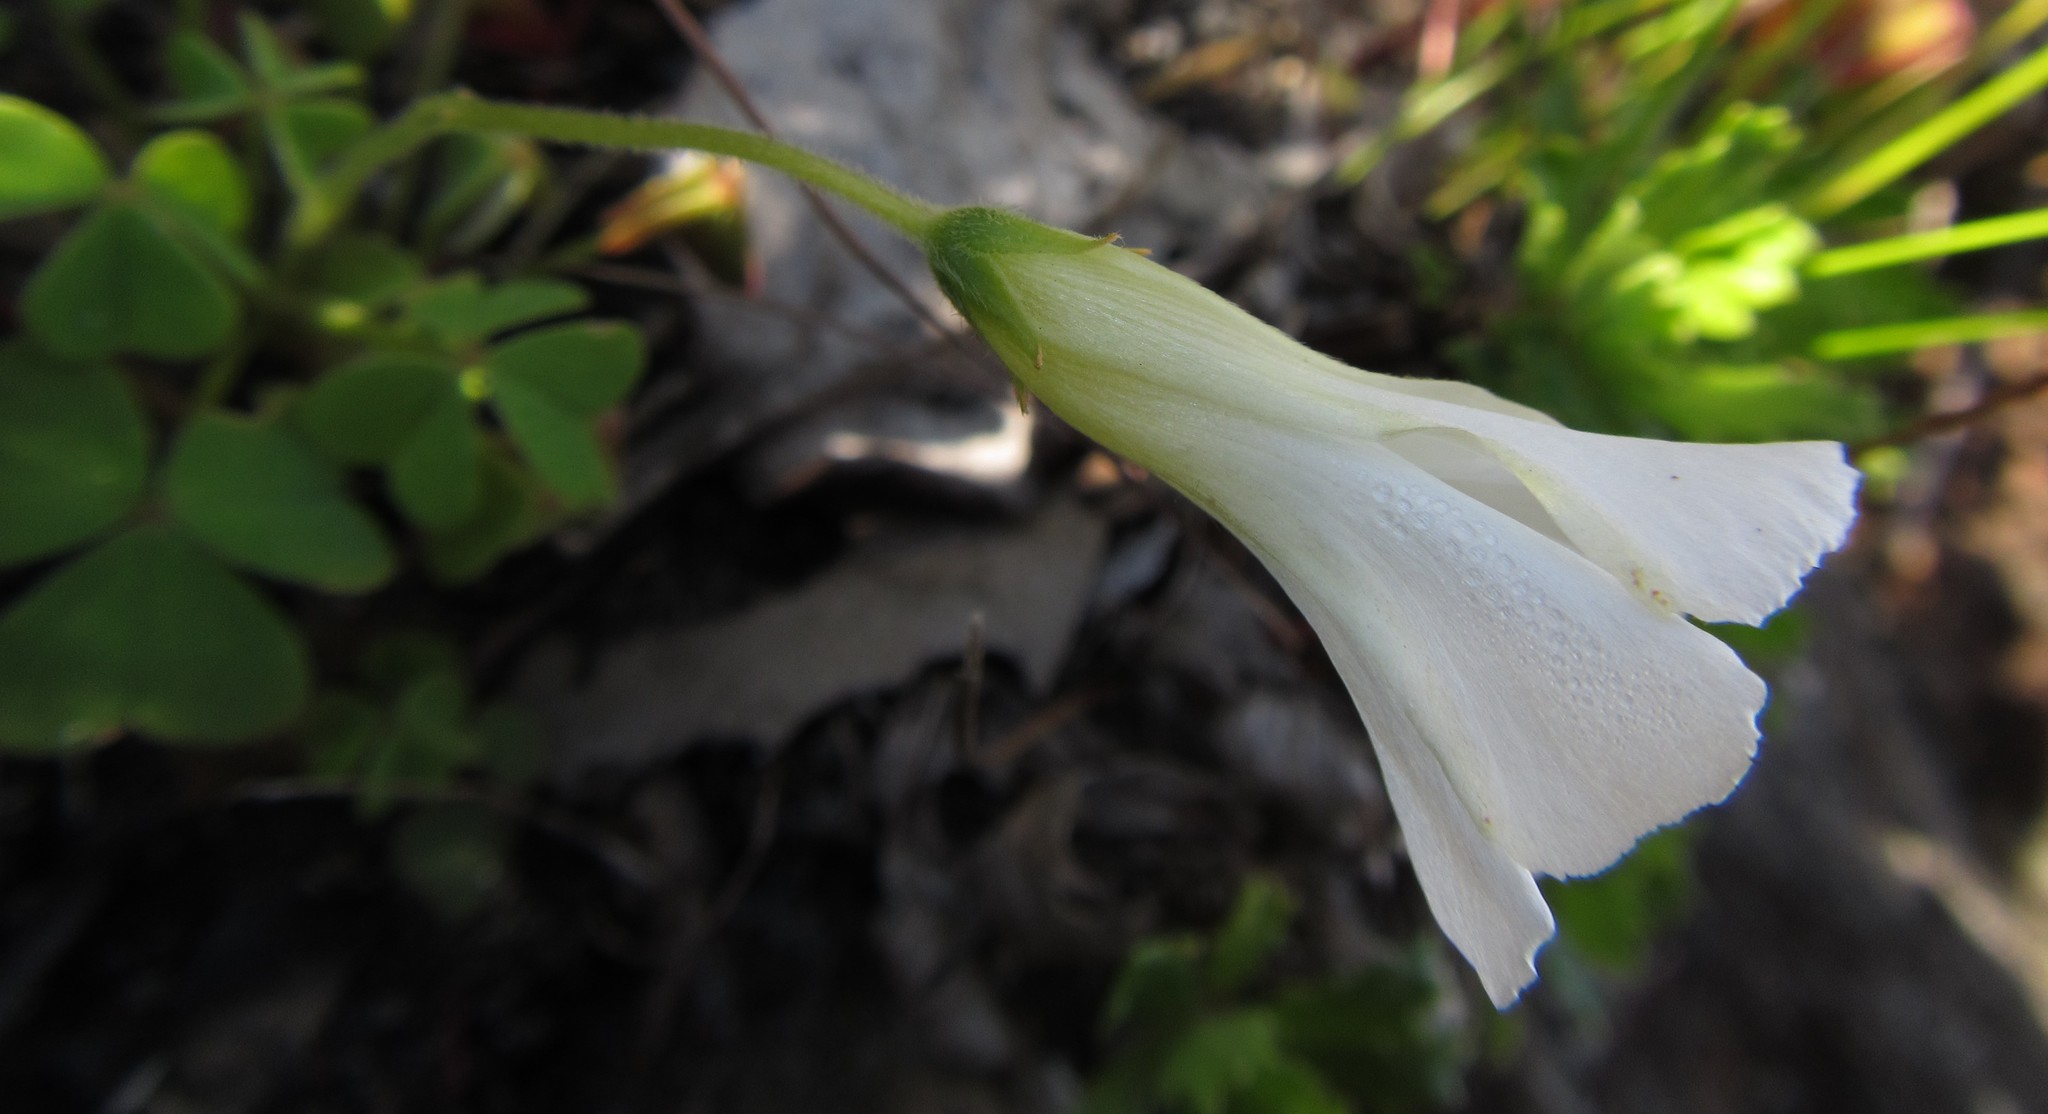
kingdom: Plantae
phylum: Tracheophyta
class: Magnoliopsida
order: Oxalidales
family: Oxalidaceae
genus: Oxalis
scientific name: Oxalis lanata
